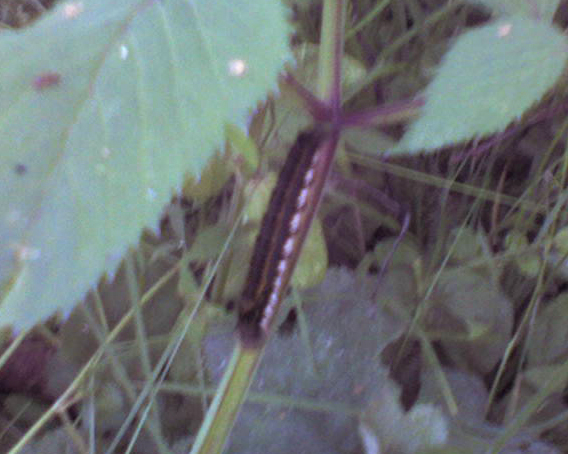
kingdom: Animalia
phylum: Arthropoda
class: Insecta
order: Lepidoptera
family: Lasiocampidae
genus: Euthrix
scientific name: Euthrix potatoria
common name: Drinker
